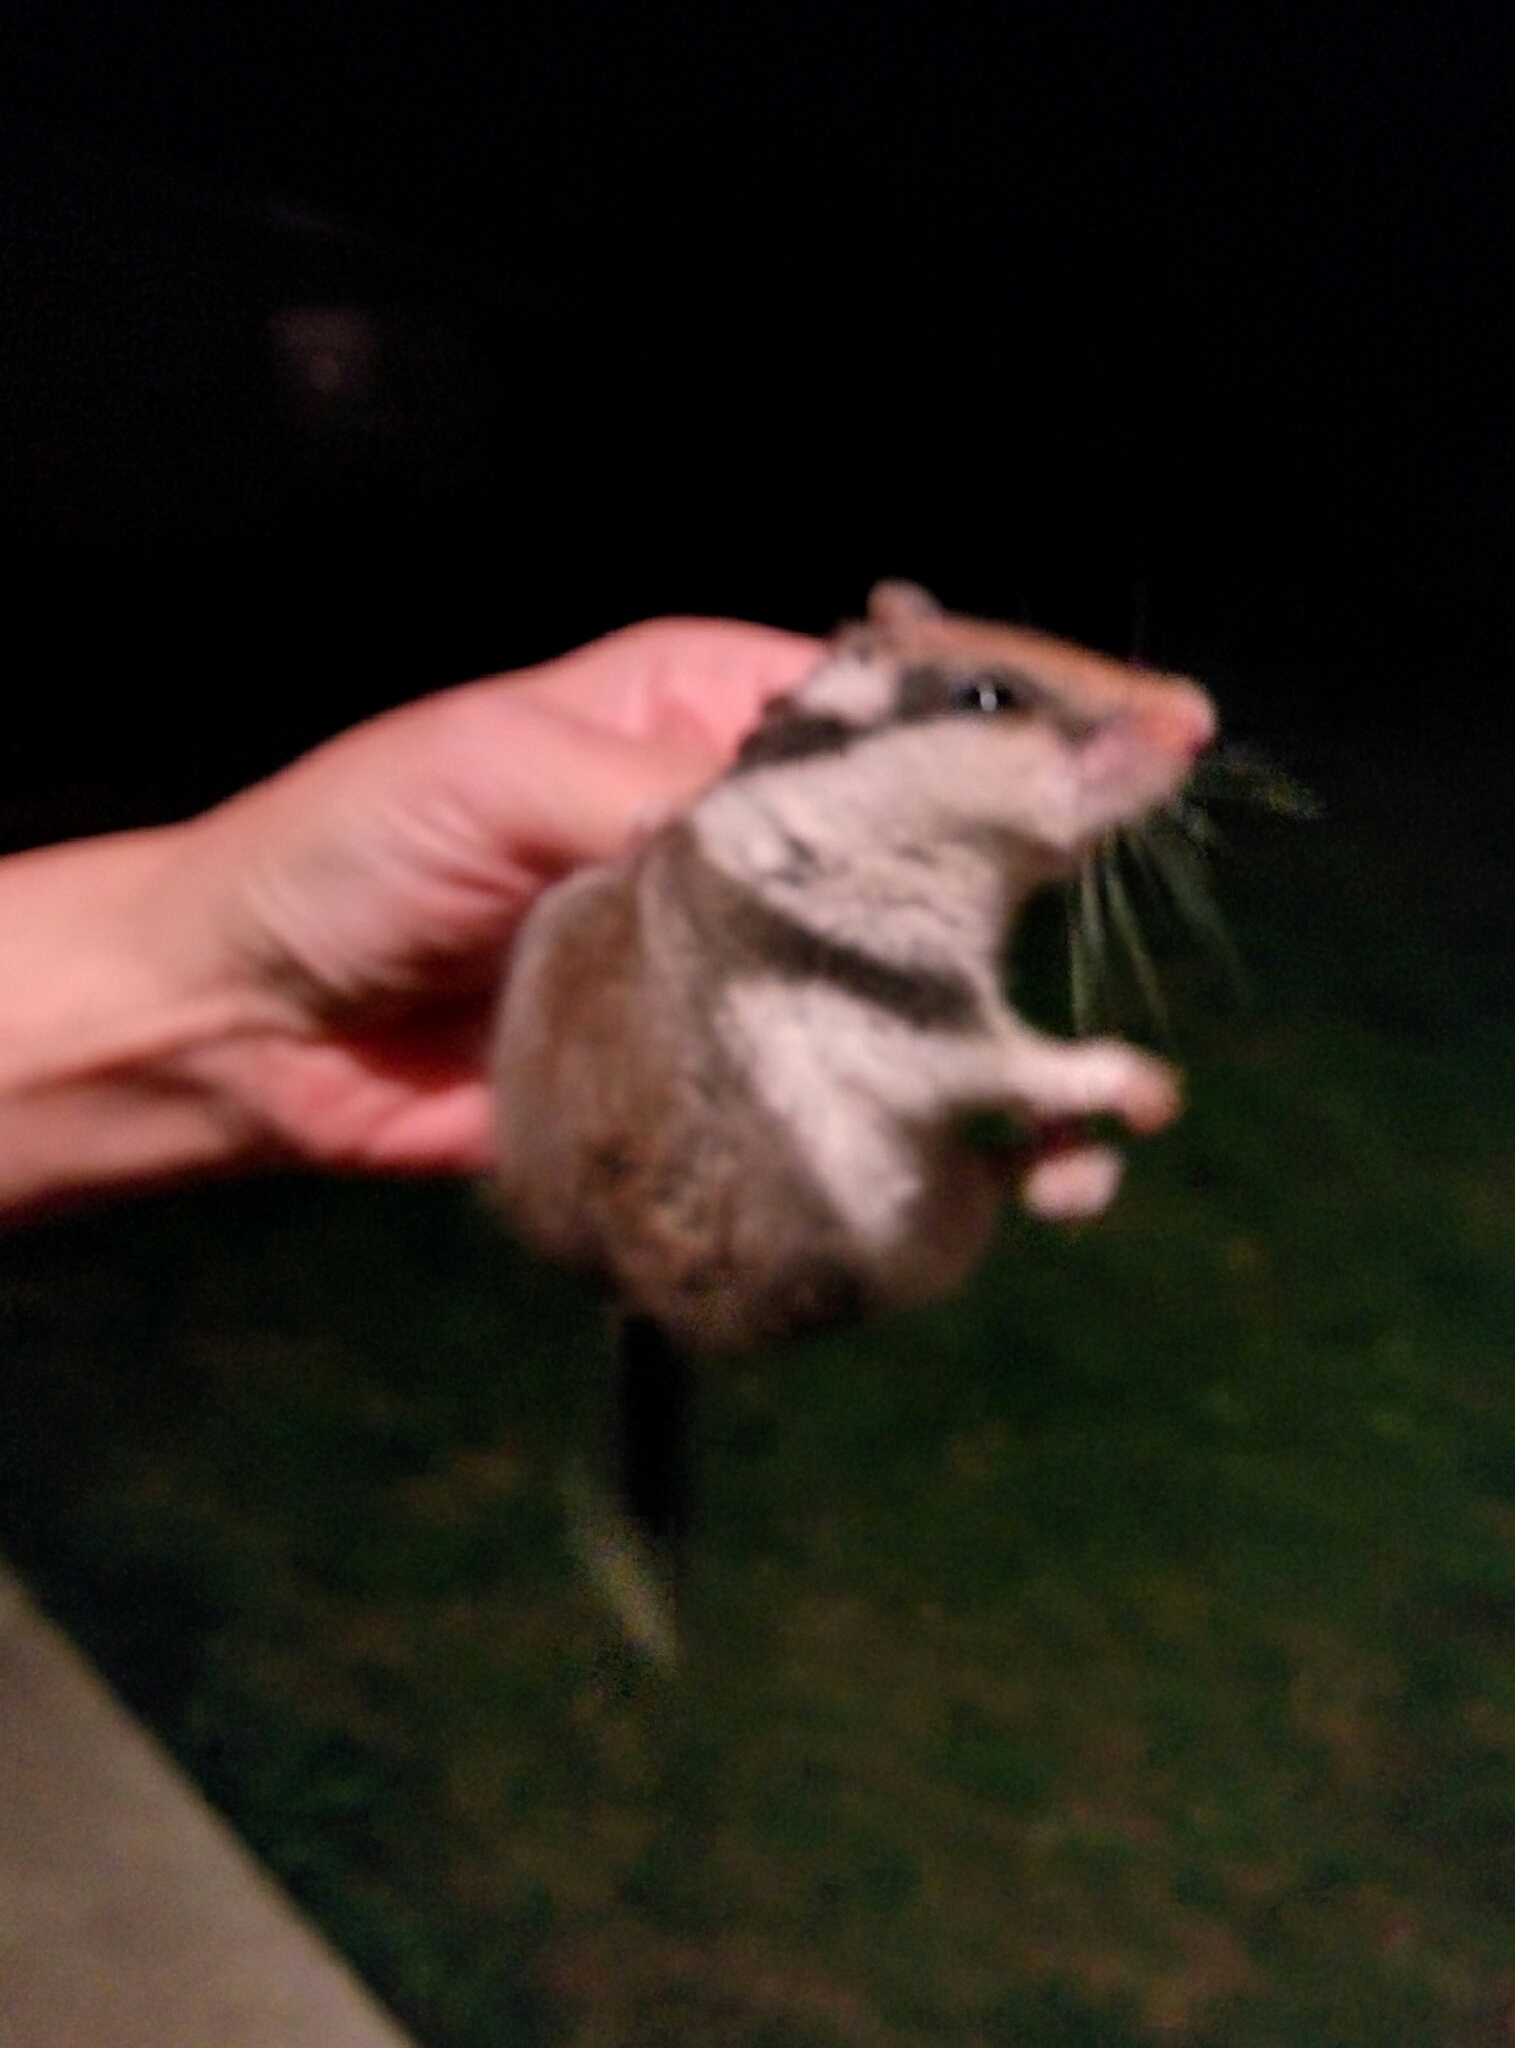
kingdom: Animalia
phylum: Chordata
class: Mammalia
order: Rodentia
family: Gliridae
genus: Eliomys
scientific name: Eliomys quercinus
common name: Garden dormouse
